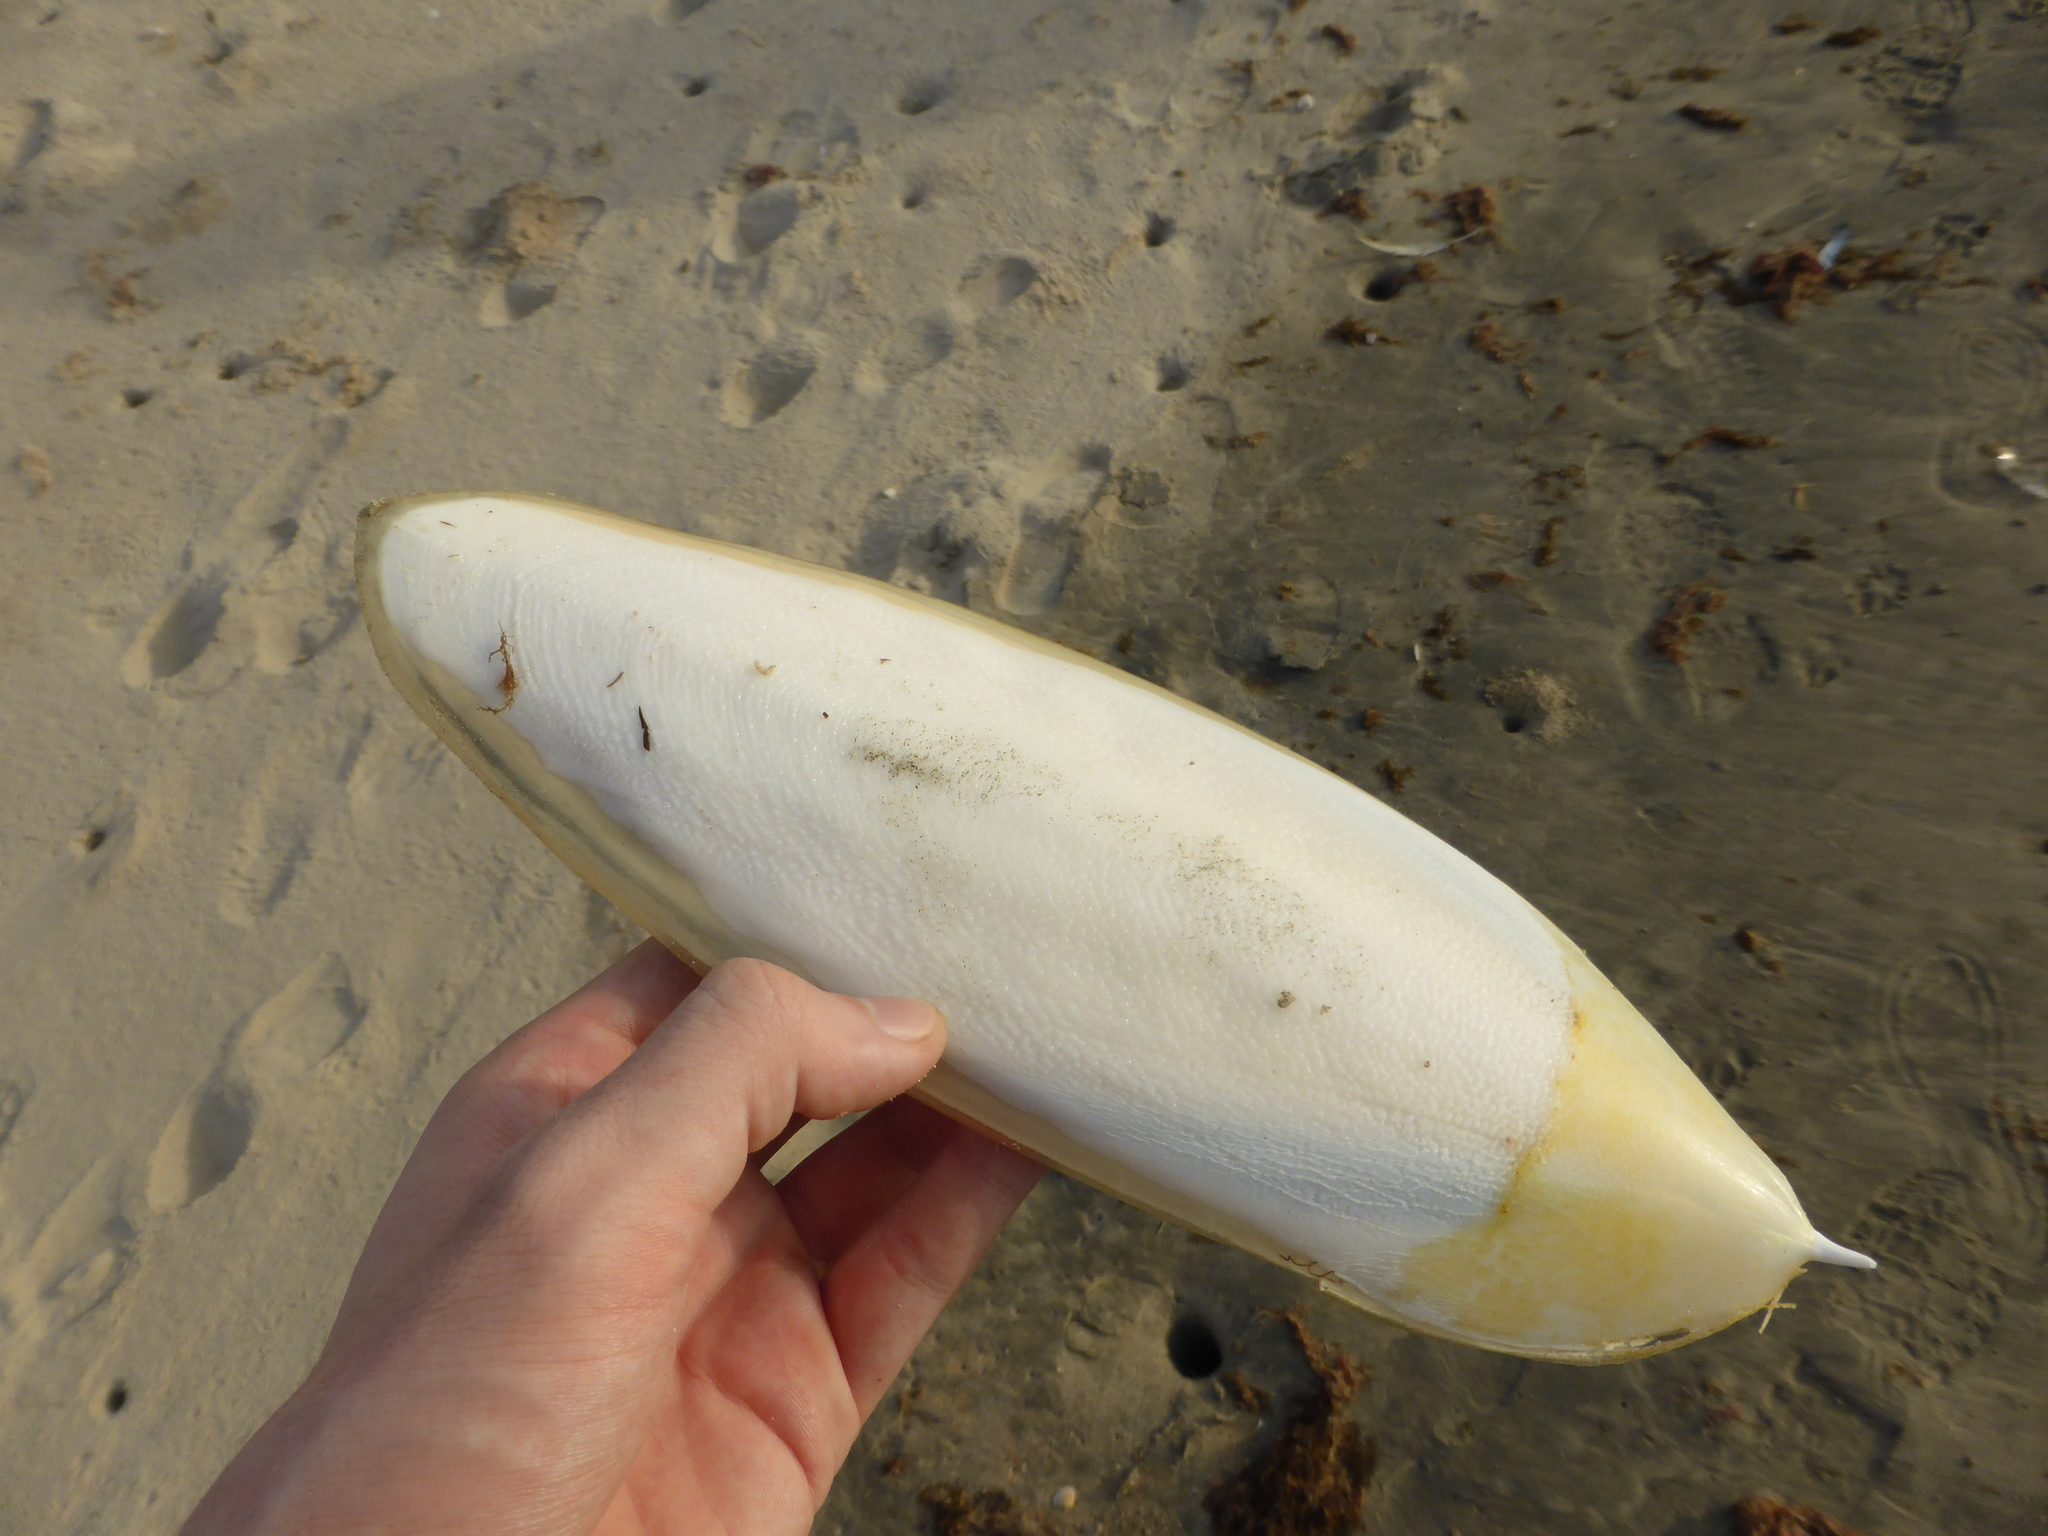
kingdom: Animalia
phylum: Mollusca
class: Cephalopoda
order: Sepiida
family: Sepiidae
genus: Sepia
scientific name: Sepia hierredda
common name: Giant african cuttlefish
